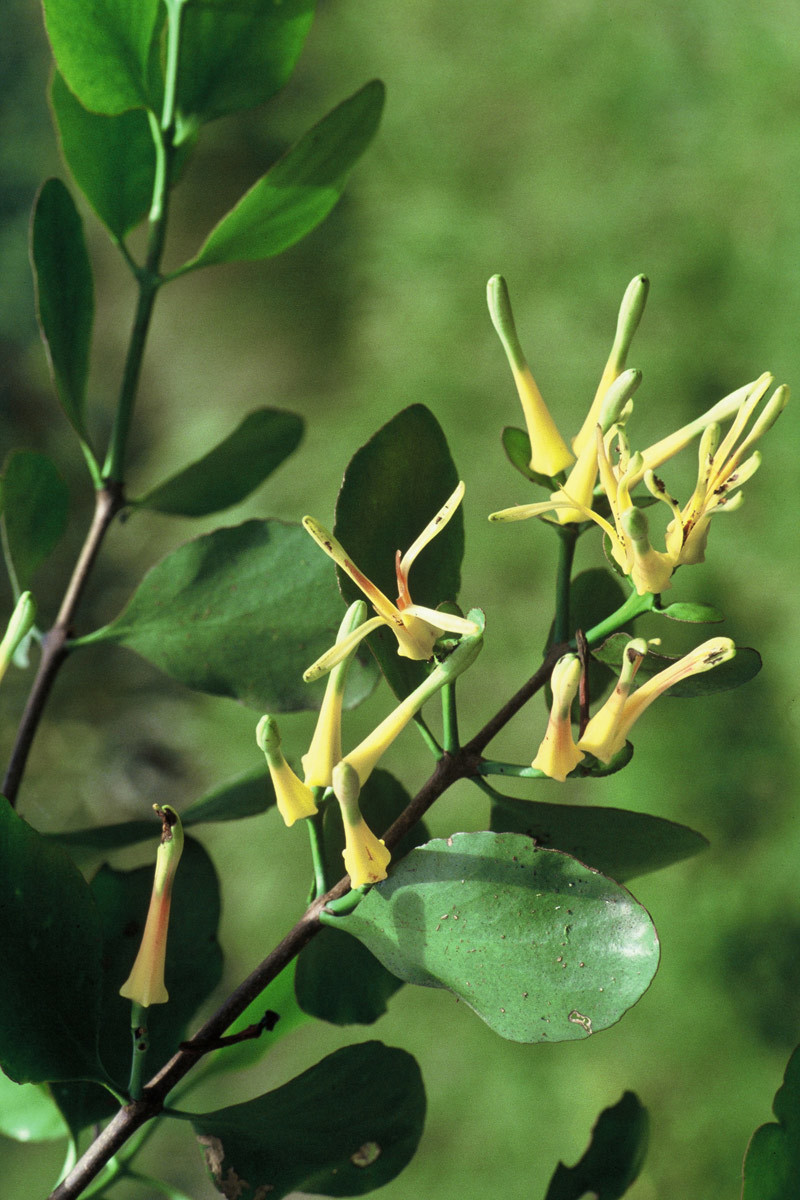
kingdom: Plantae
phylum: Tracheophyta
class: Magnoliopsida
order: Santalales
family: Loranthaceae
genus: Peraxilla
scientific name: Peraxilla colensoi
